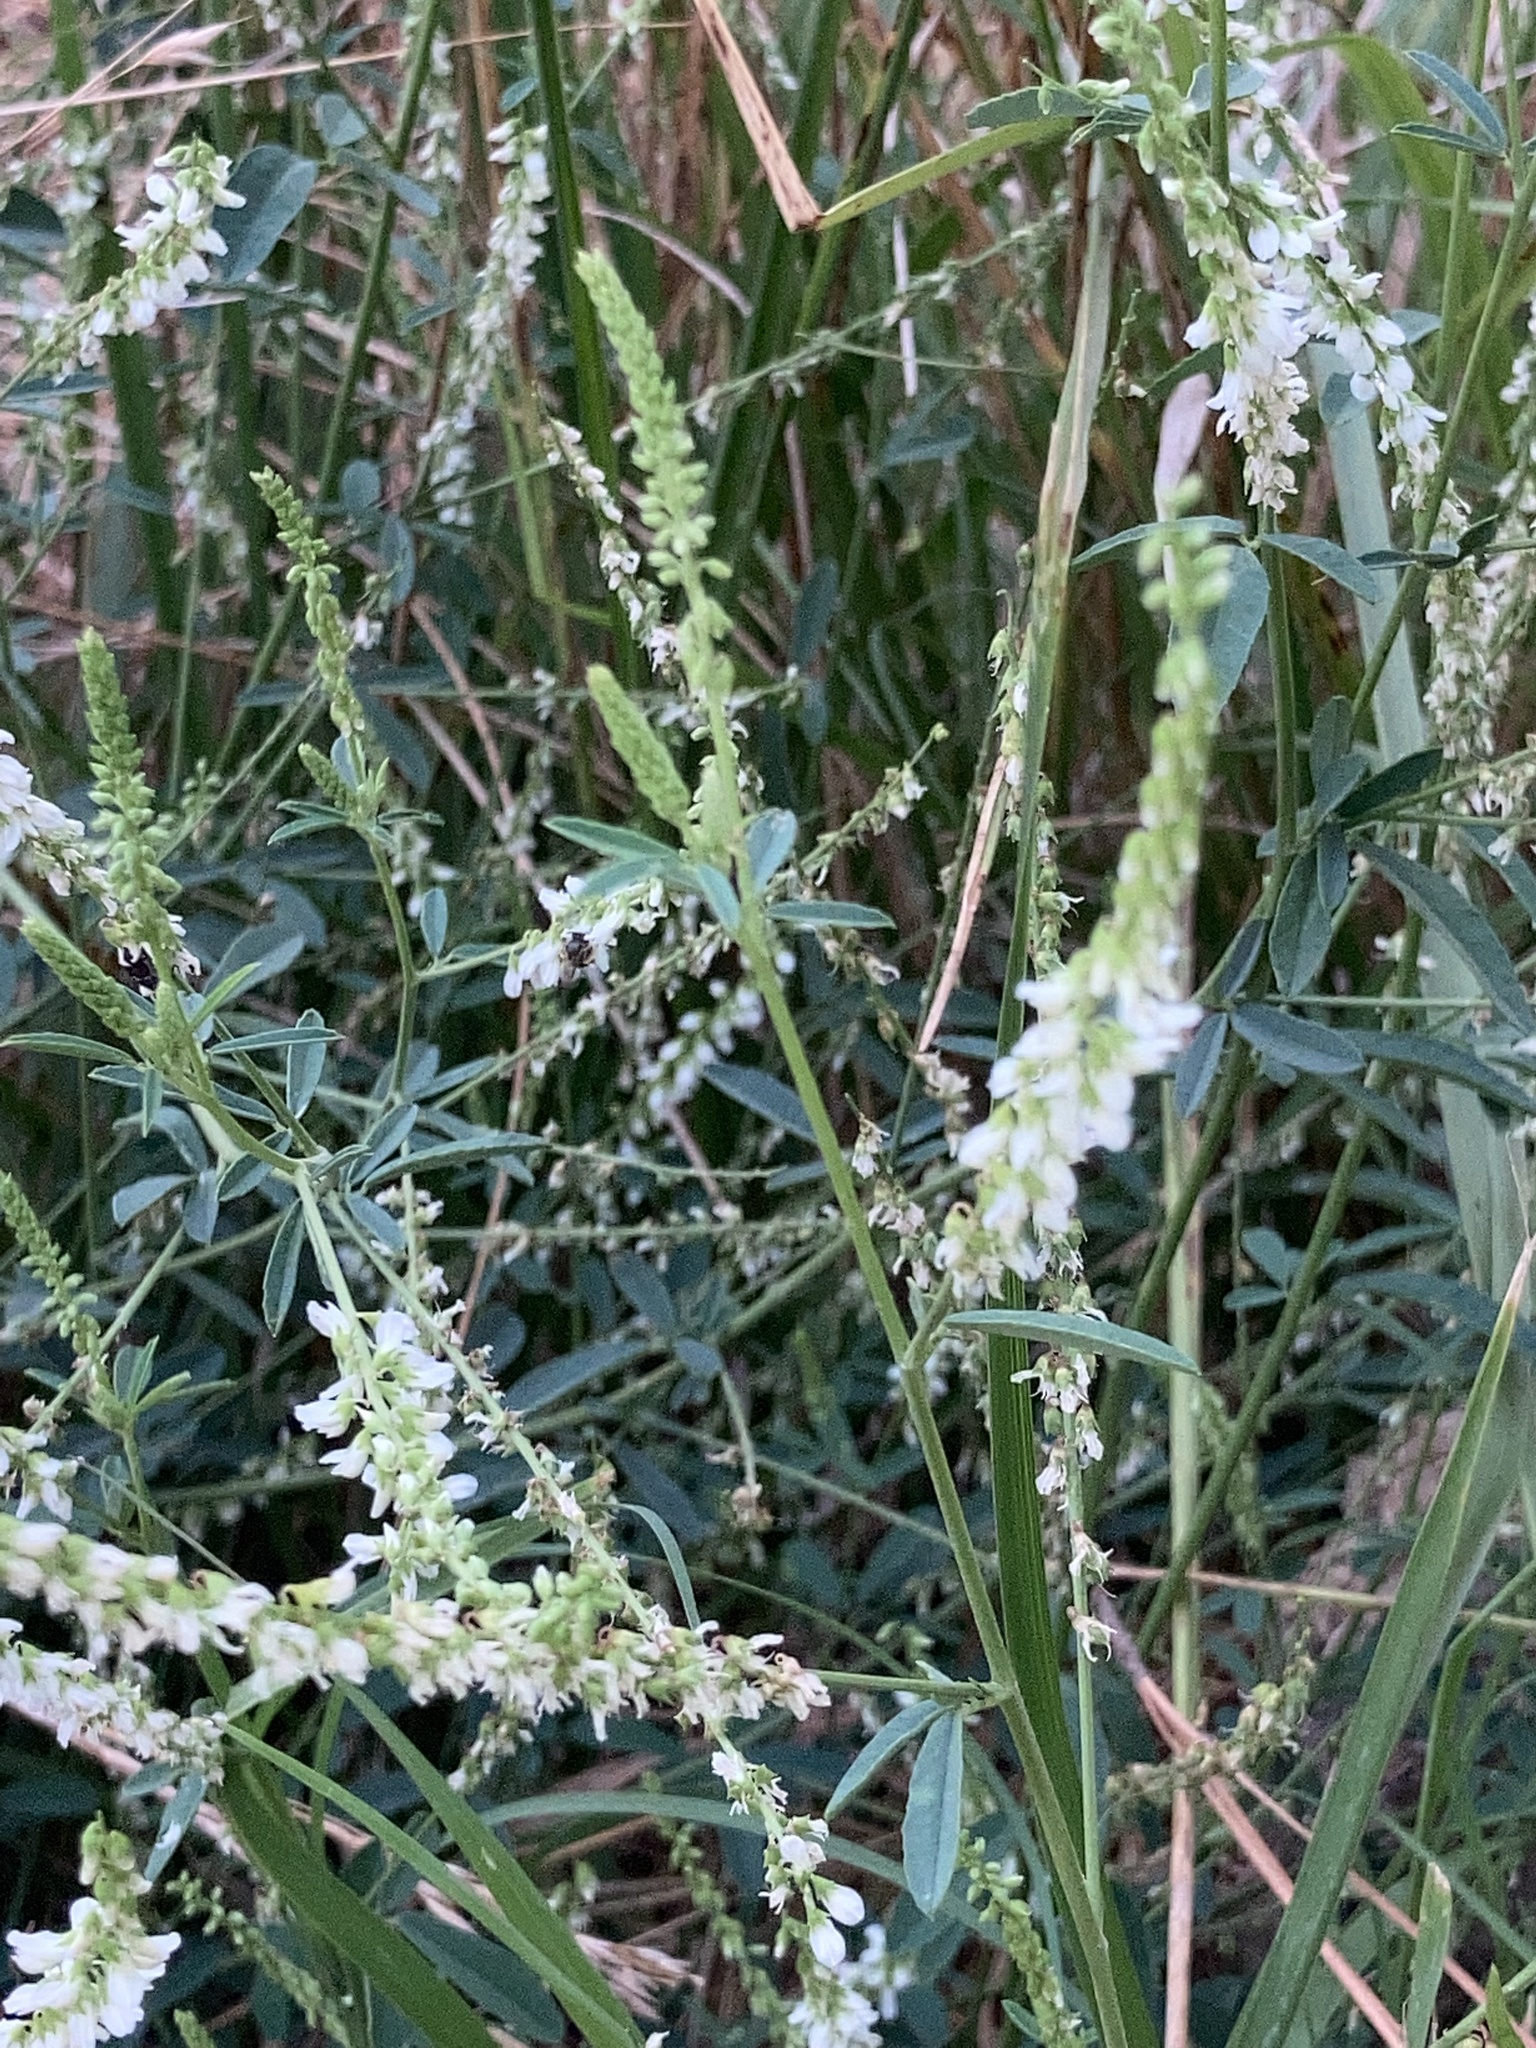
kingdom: Plantae
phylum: Tracheophyta
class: Magnoliopsida
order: Fabales
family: Fabaceae
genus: Melilotus
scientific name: Melilotus albus
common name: White melilot
